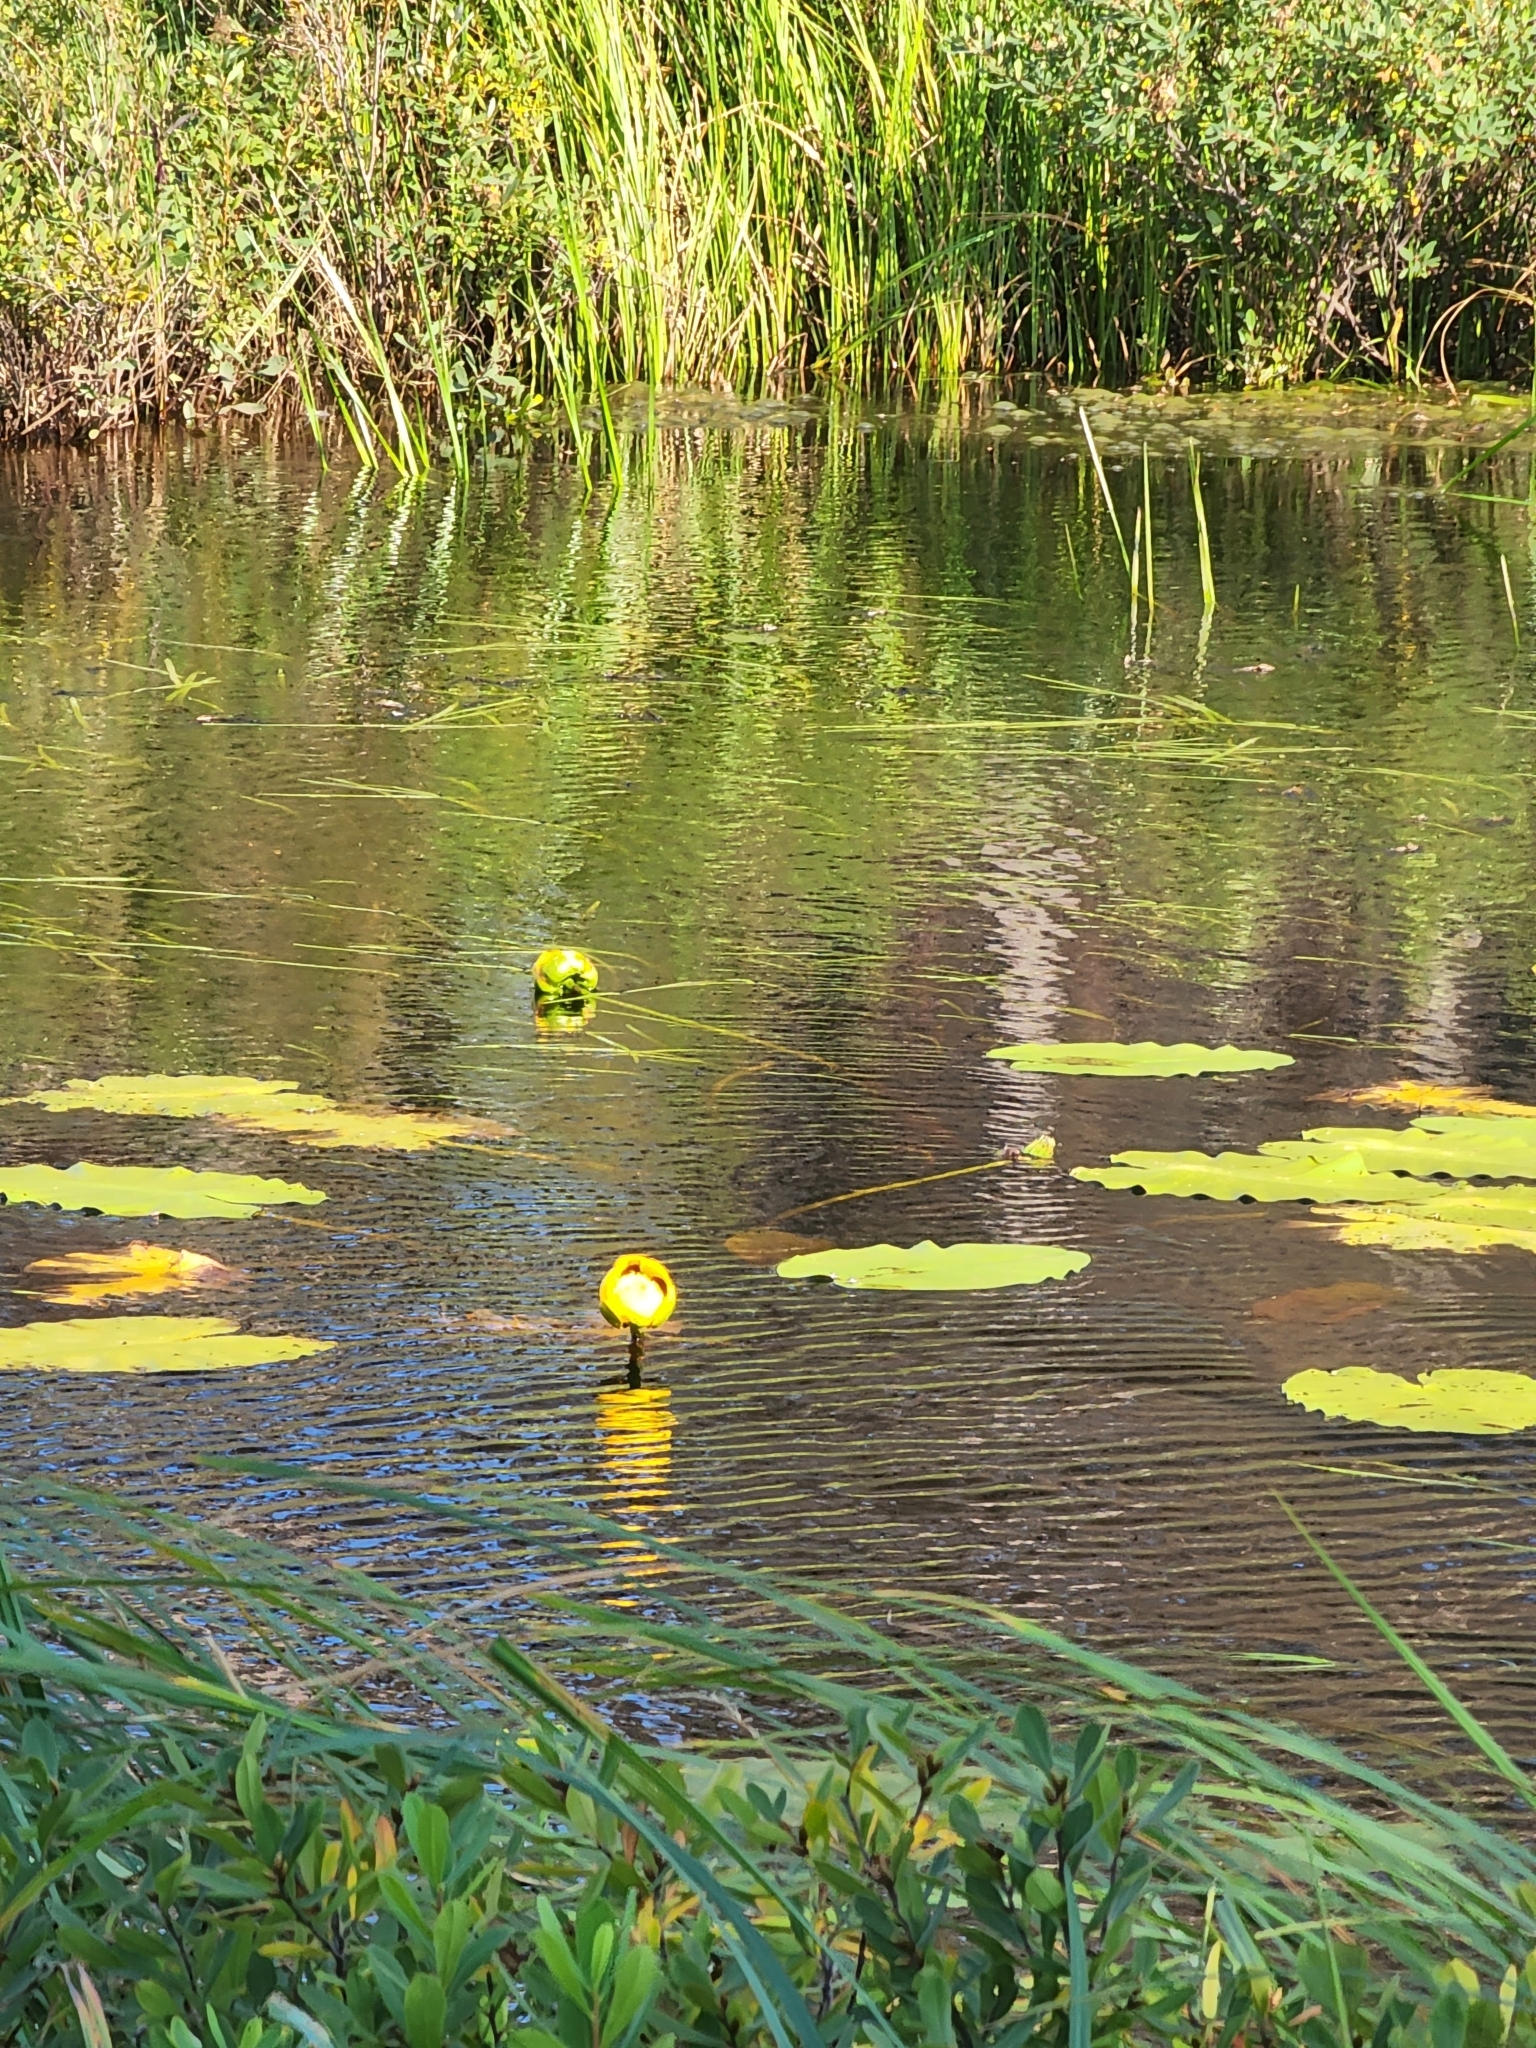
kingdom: Plantae
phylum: Tracheophyta
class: Magnoliopsida
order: Nymphaeales
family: Nymphaeaceae
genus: Nuphar
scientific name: Nuphar variegata
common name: Beaver-root
